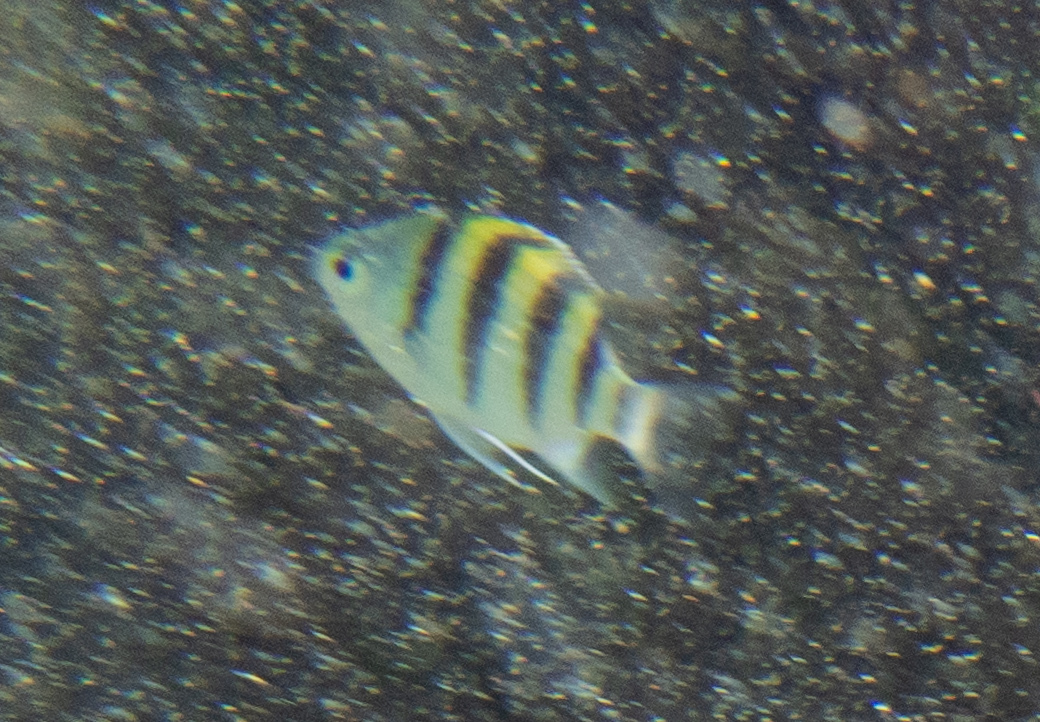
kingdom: Animalia
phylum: Chordata
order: Perciformes
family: Pomacentridae
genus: Abudefduf
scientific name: Abudefduf vaigiensis
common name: Indo-pacific sergeant
